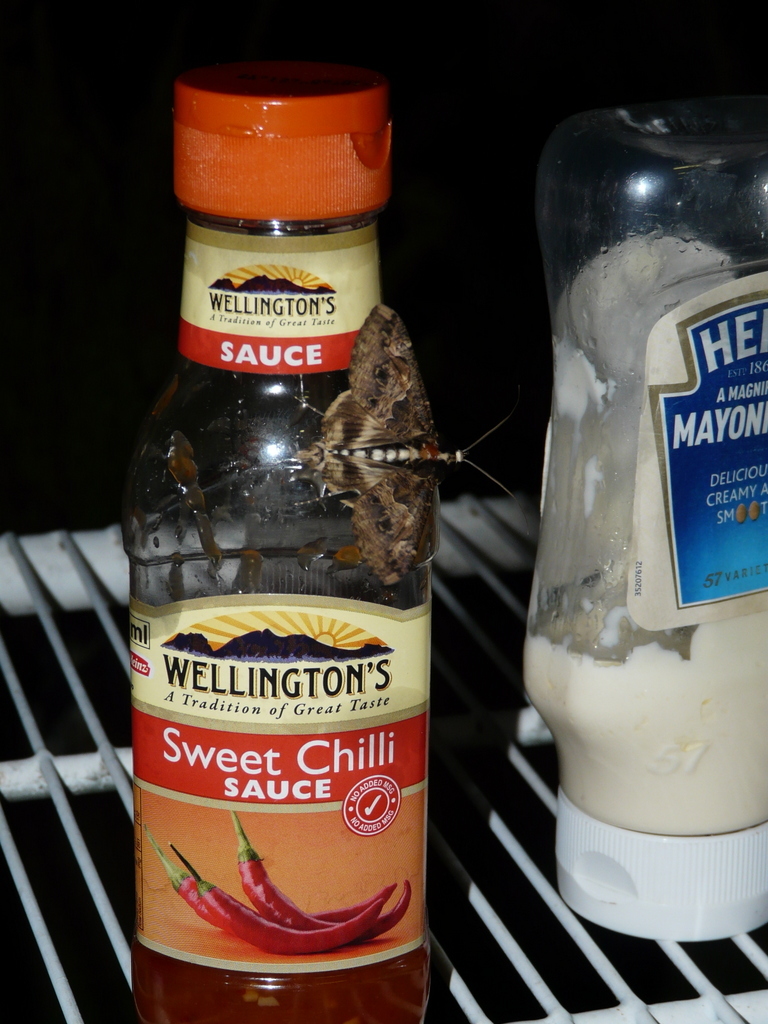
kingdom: Animalia
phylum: Arthropoda
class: Insecta
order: Lepidoptera
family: Erebidae
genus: Sphingomorpha
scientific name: Sphingomorpha chlorea
